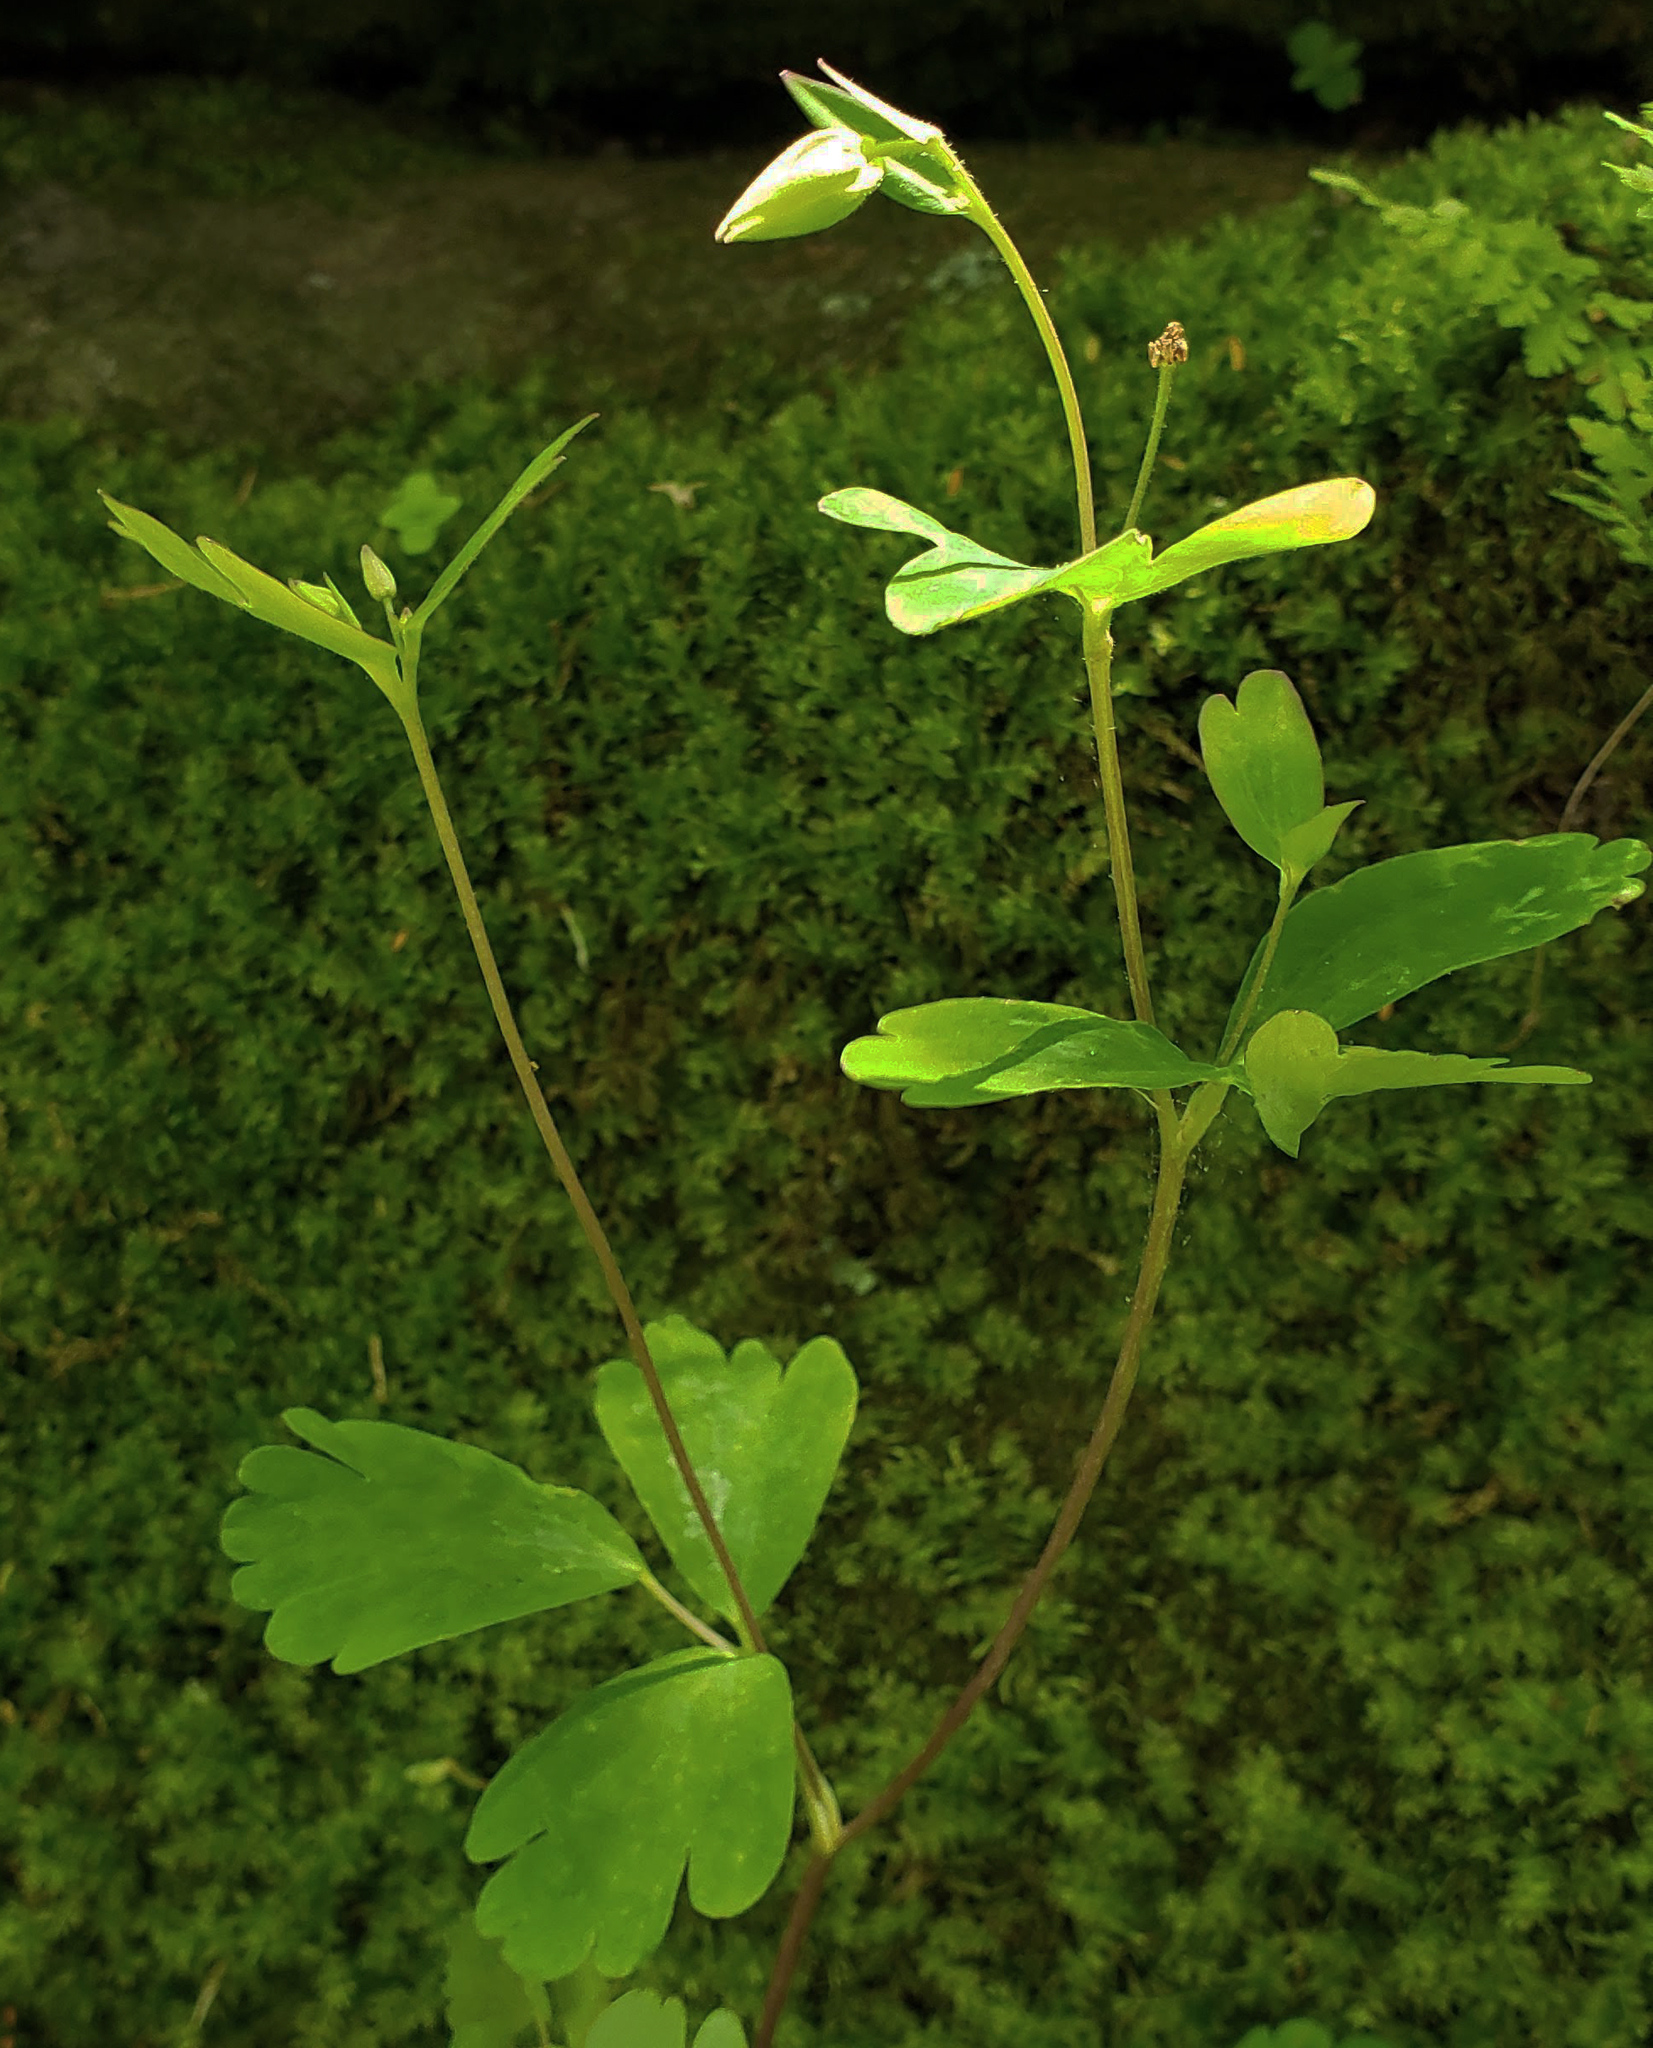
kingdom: Plantae
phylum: Tracheophyta
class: Magnoliopsida
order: Ranunculales
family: Ranunculaceae
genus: Aquilegia
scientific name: Aquilegia canadensis
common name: American columbine
